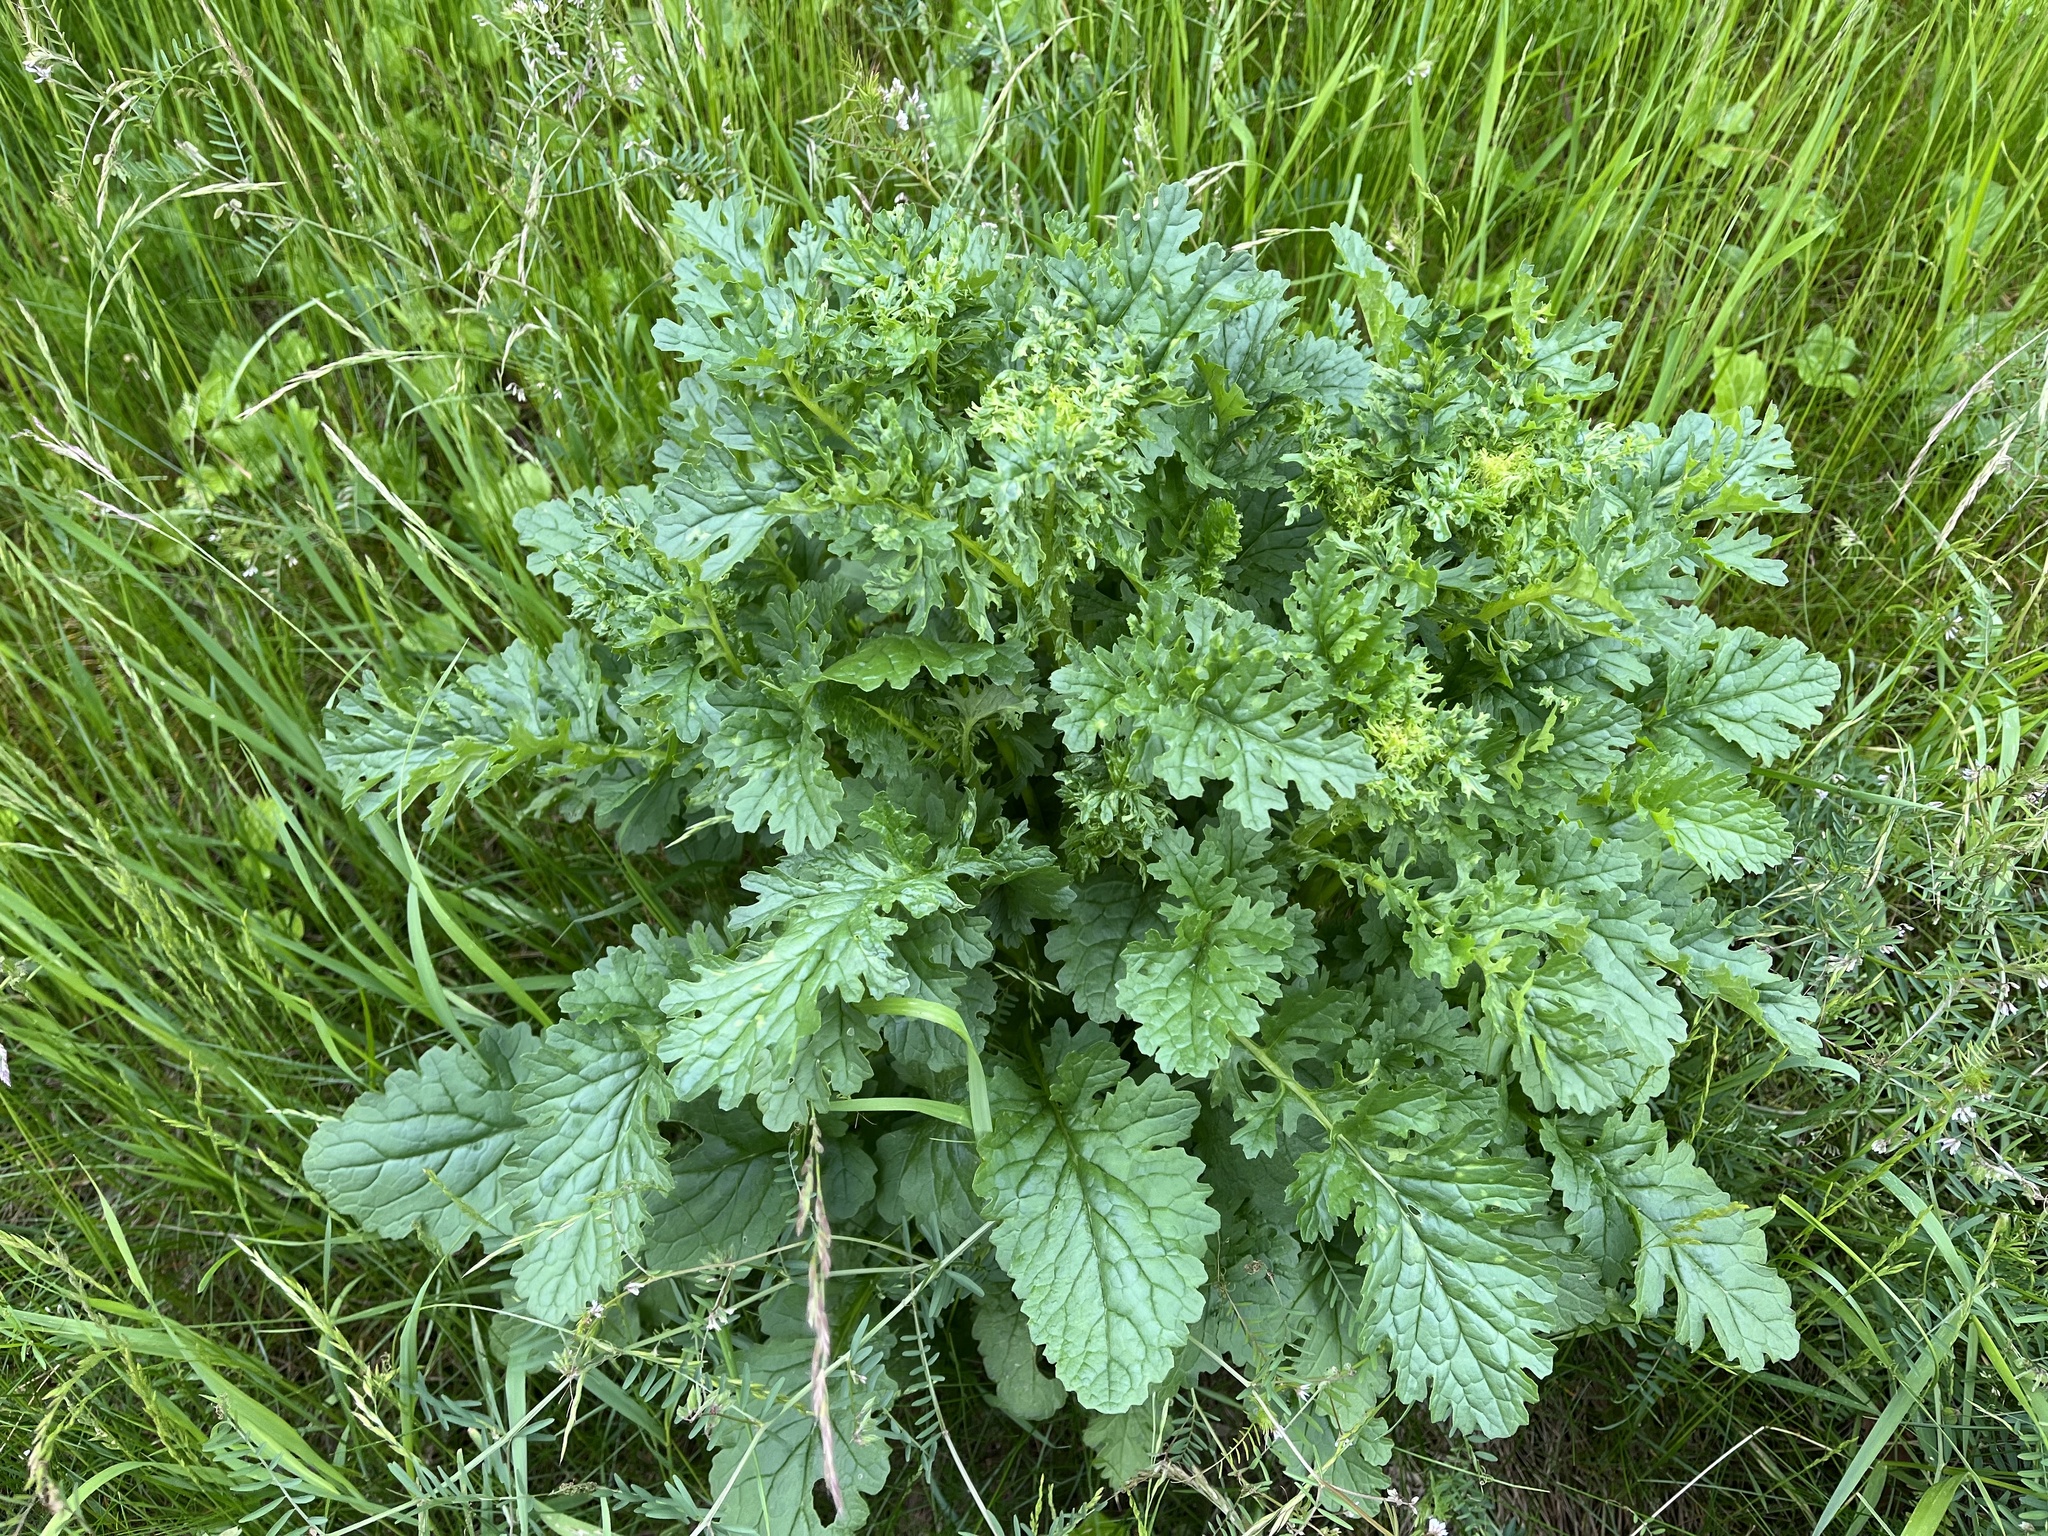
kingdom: Plantae
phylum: Tracheophyta
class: Magnoliopsida
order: Asterales
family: Asteraceae
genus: Jacobaea
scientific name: Jacobaea vulgaris
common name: Stinking willie
